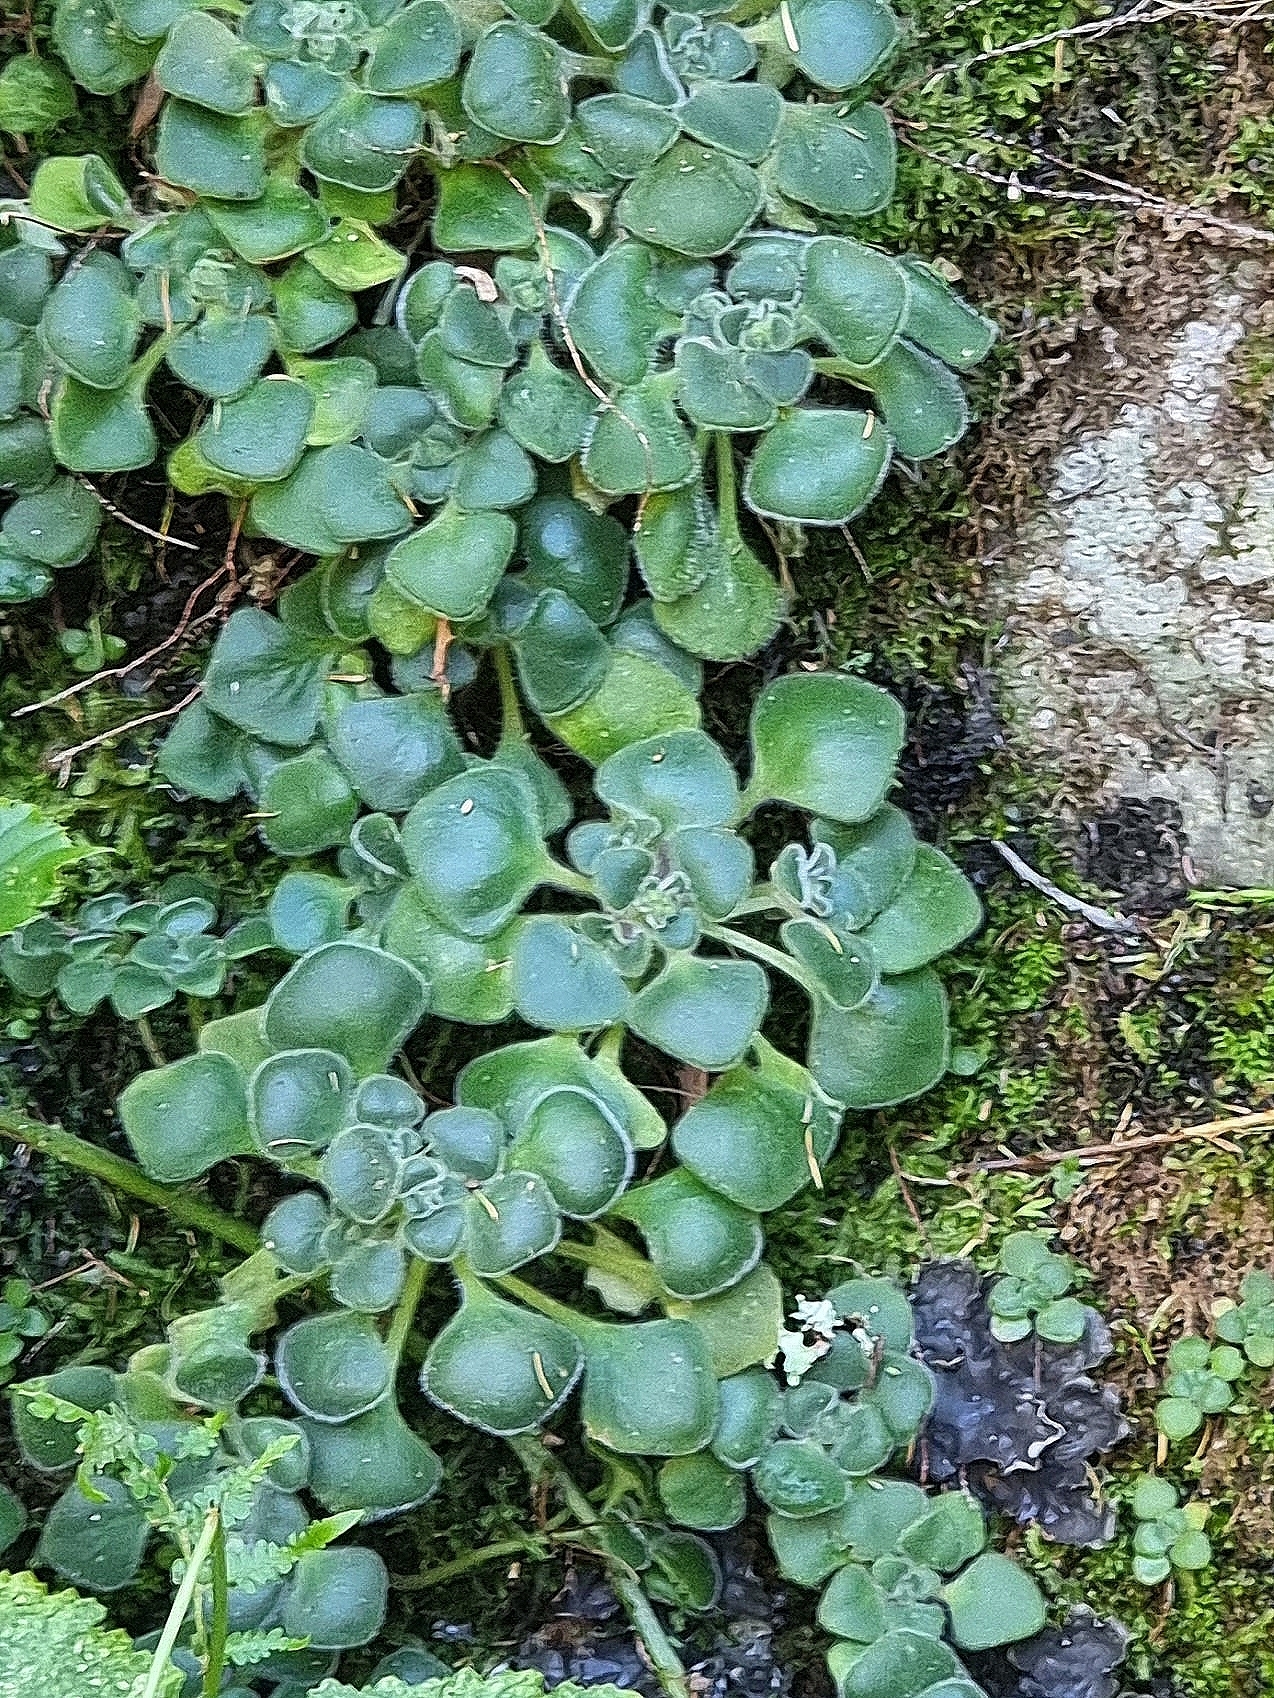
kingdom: Plantae
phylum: Tracheophyta
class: Magnoliopsida
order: Saxifragales
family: Crassulaceae
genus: Aichryson
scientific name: Aichryson villosum
